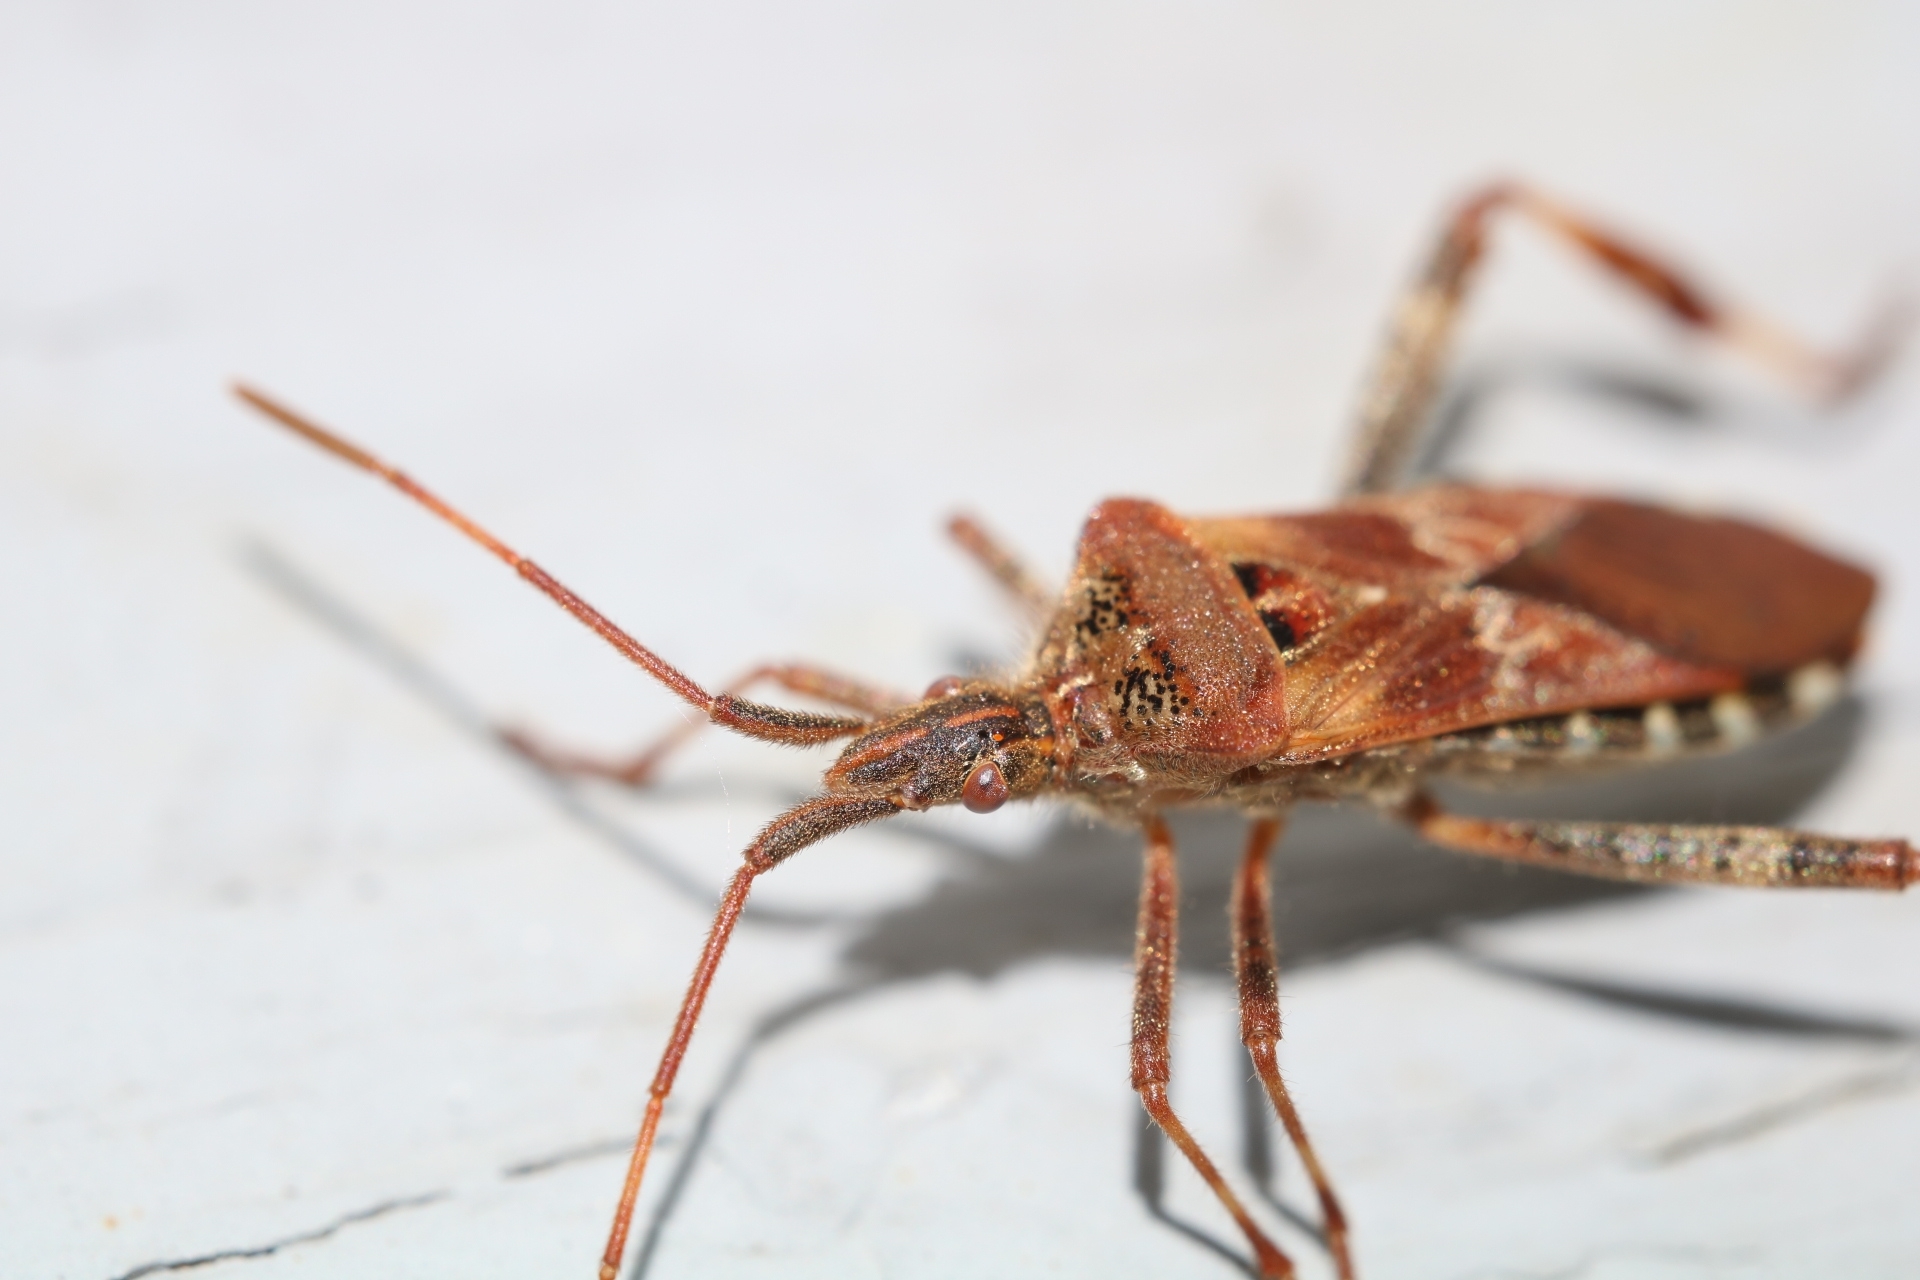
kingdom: Animalia
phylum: Arthropoda
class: Insecta
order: Hemiptera
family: Coreidae
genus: Leptoglossus
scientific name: Leptoglossus occidentalis
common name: Western conifer-seed bug
